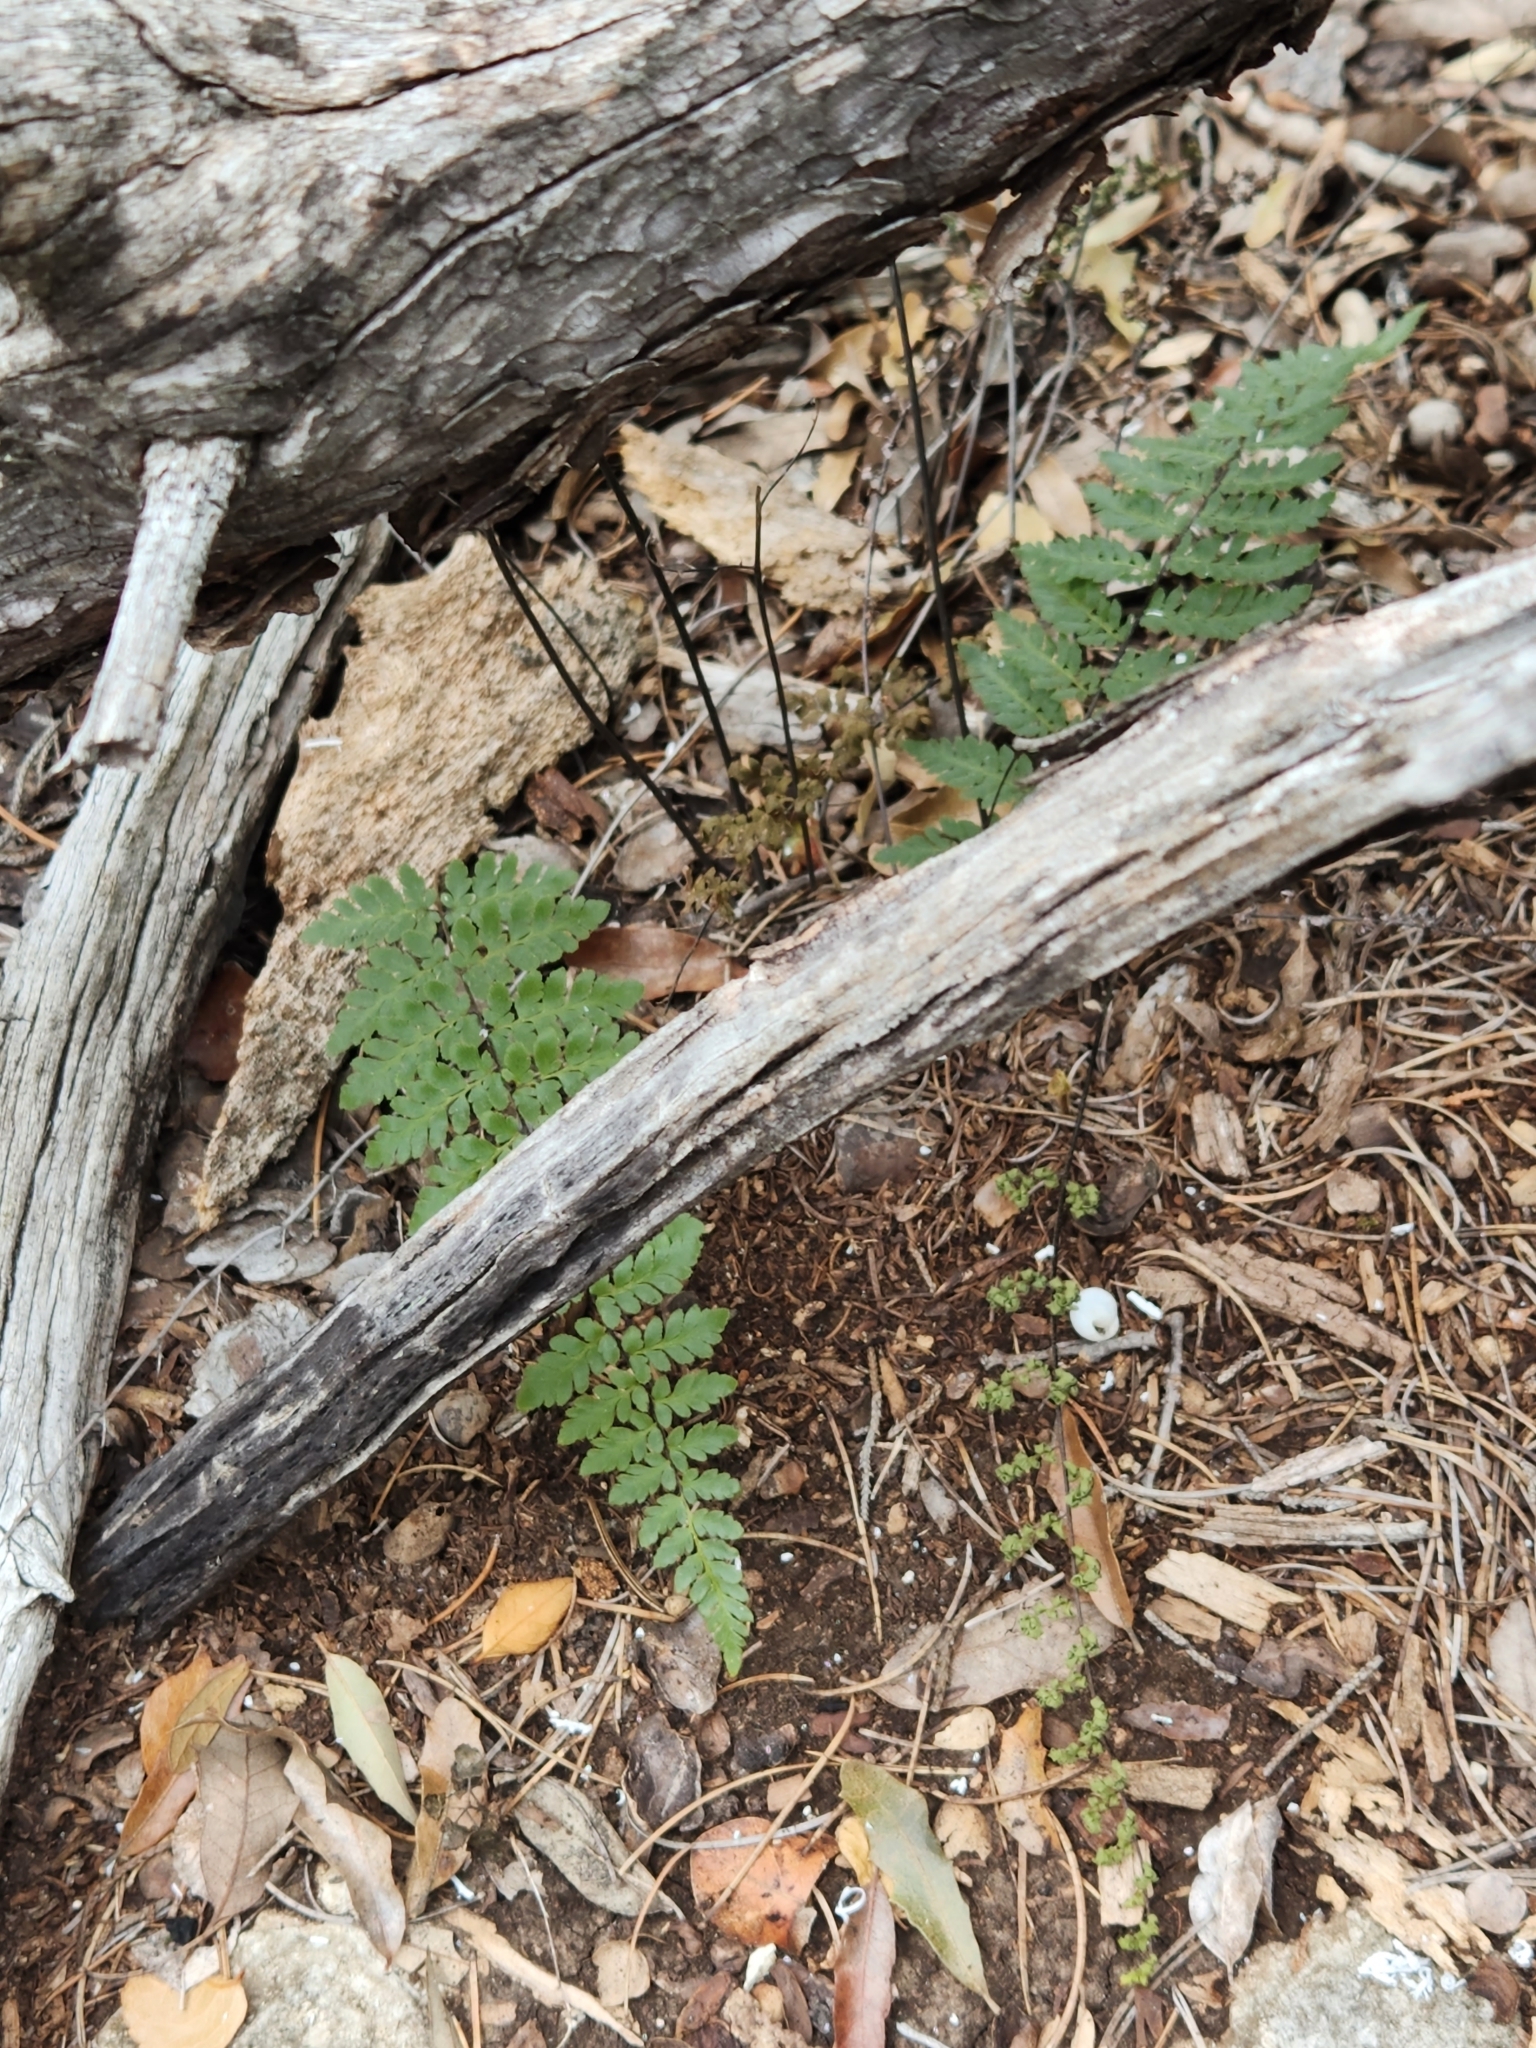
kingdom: Plantae
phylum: Tracheophyta
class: Polypodiopsida
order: Polypodiales
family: Pteridaceae
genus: Myriopteris
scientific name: Myriopteris alabamensis
